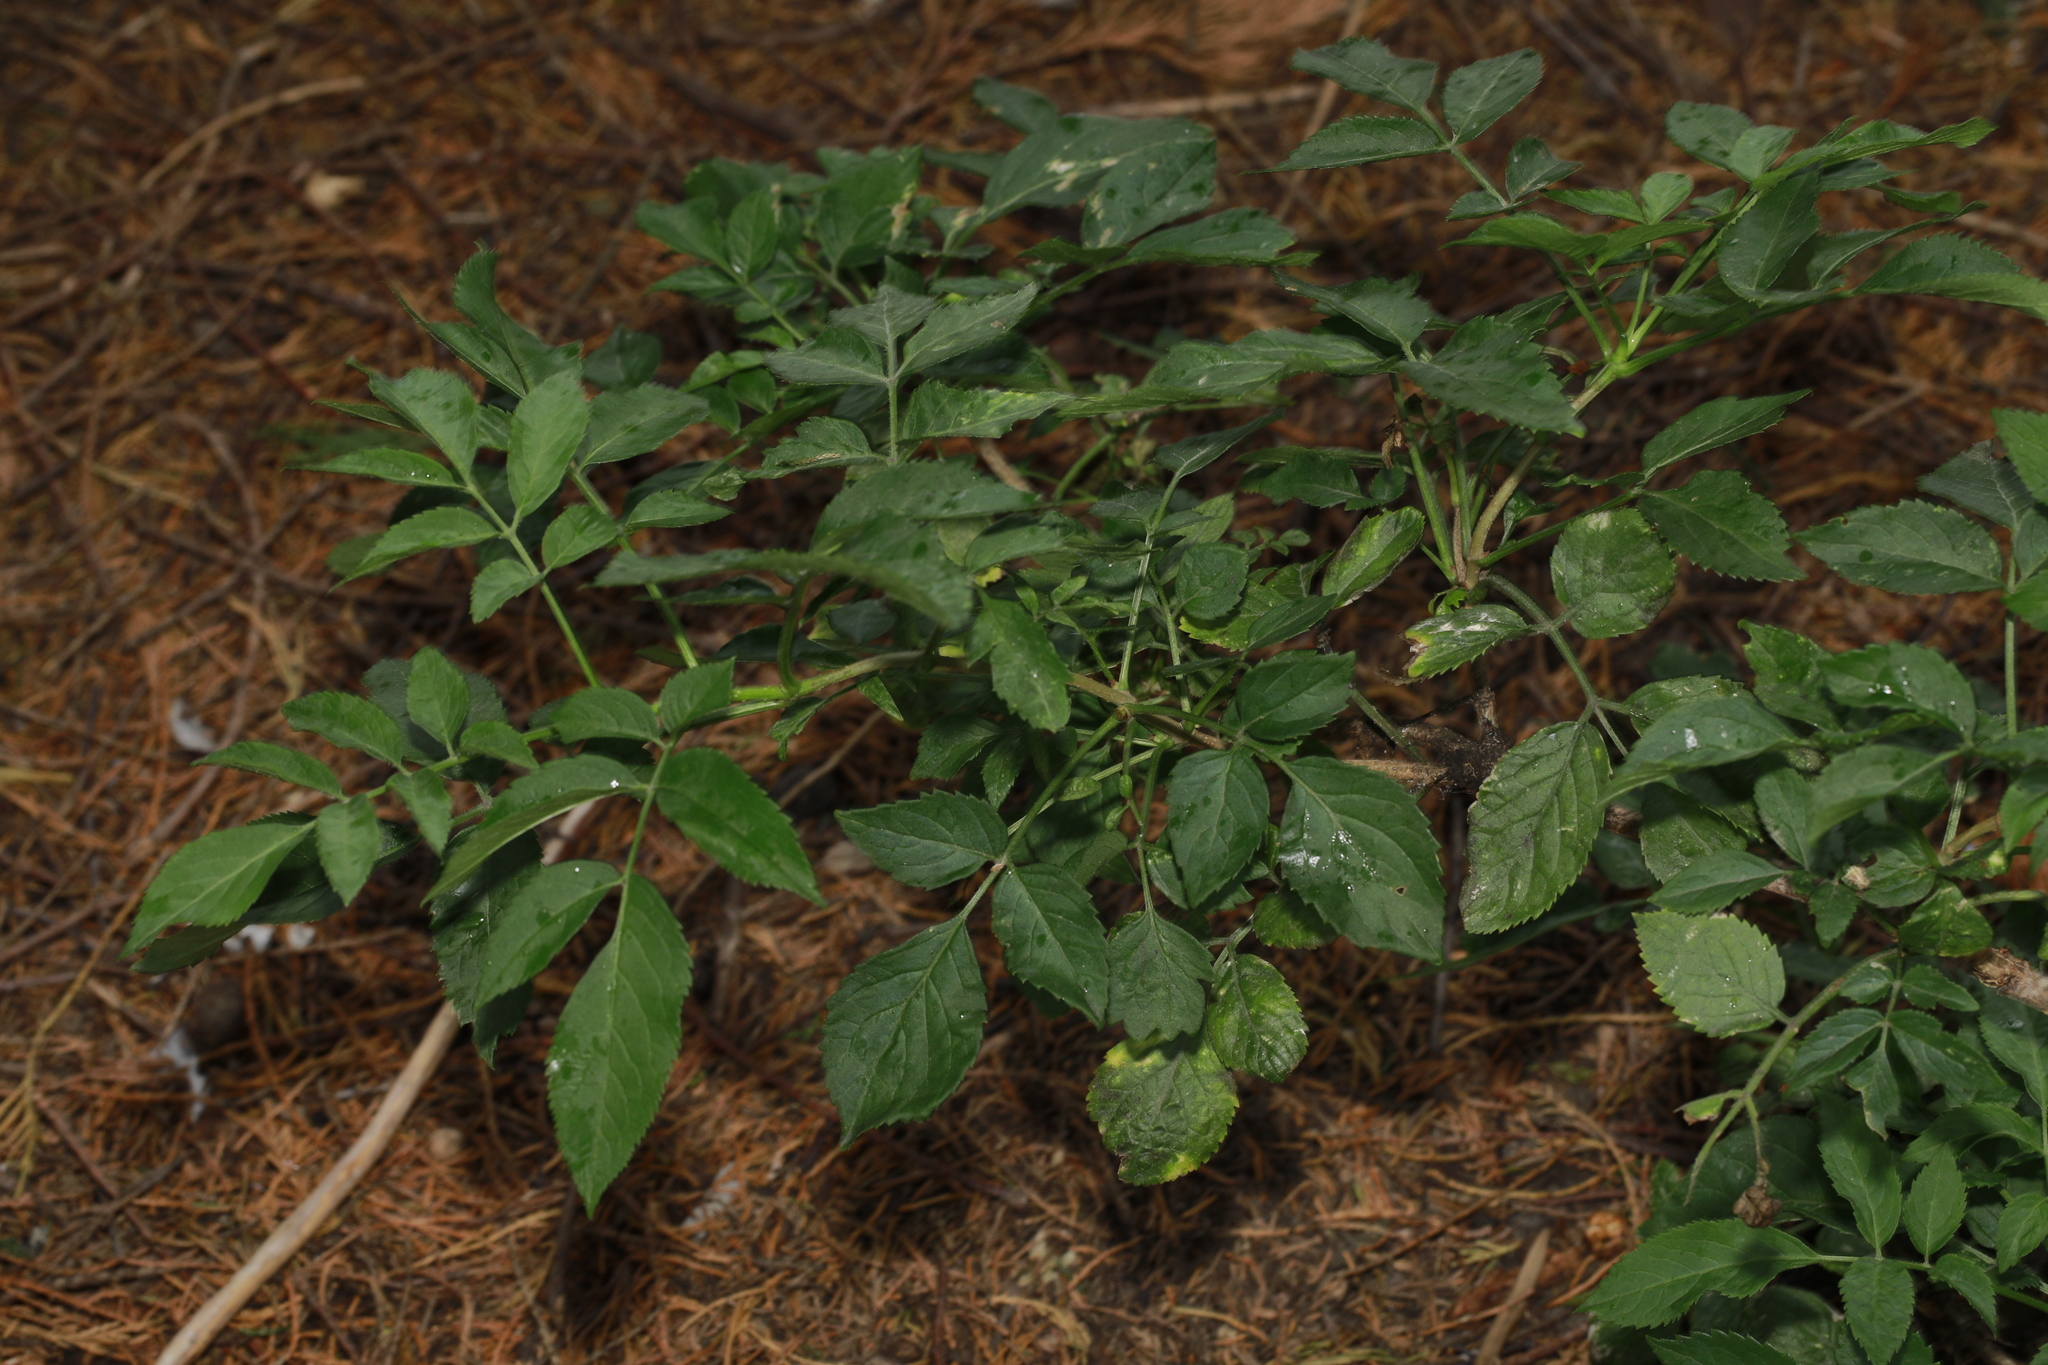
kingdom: Plantae
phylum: Tracheophyta
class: Magnoliopsida
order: Dipsacales
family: Viburnaceae
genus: Sambucus
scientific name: Sambucus nigra
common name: Elder
